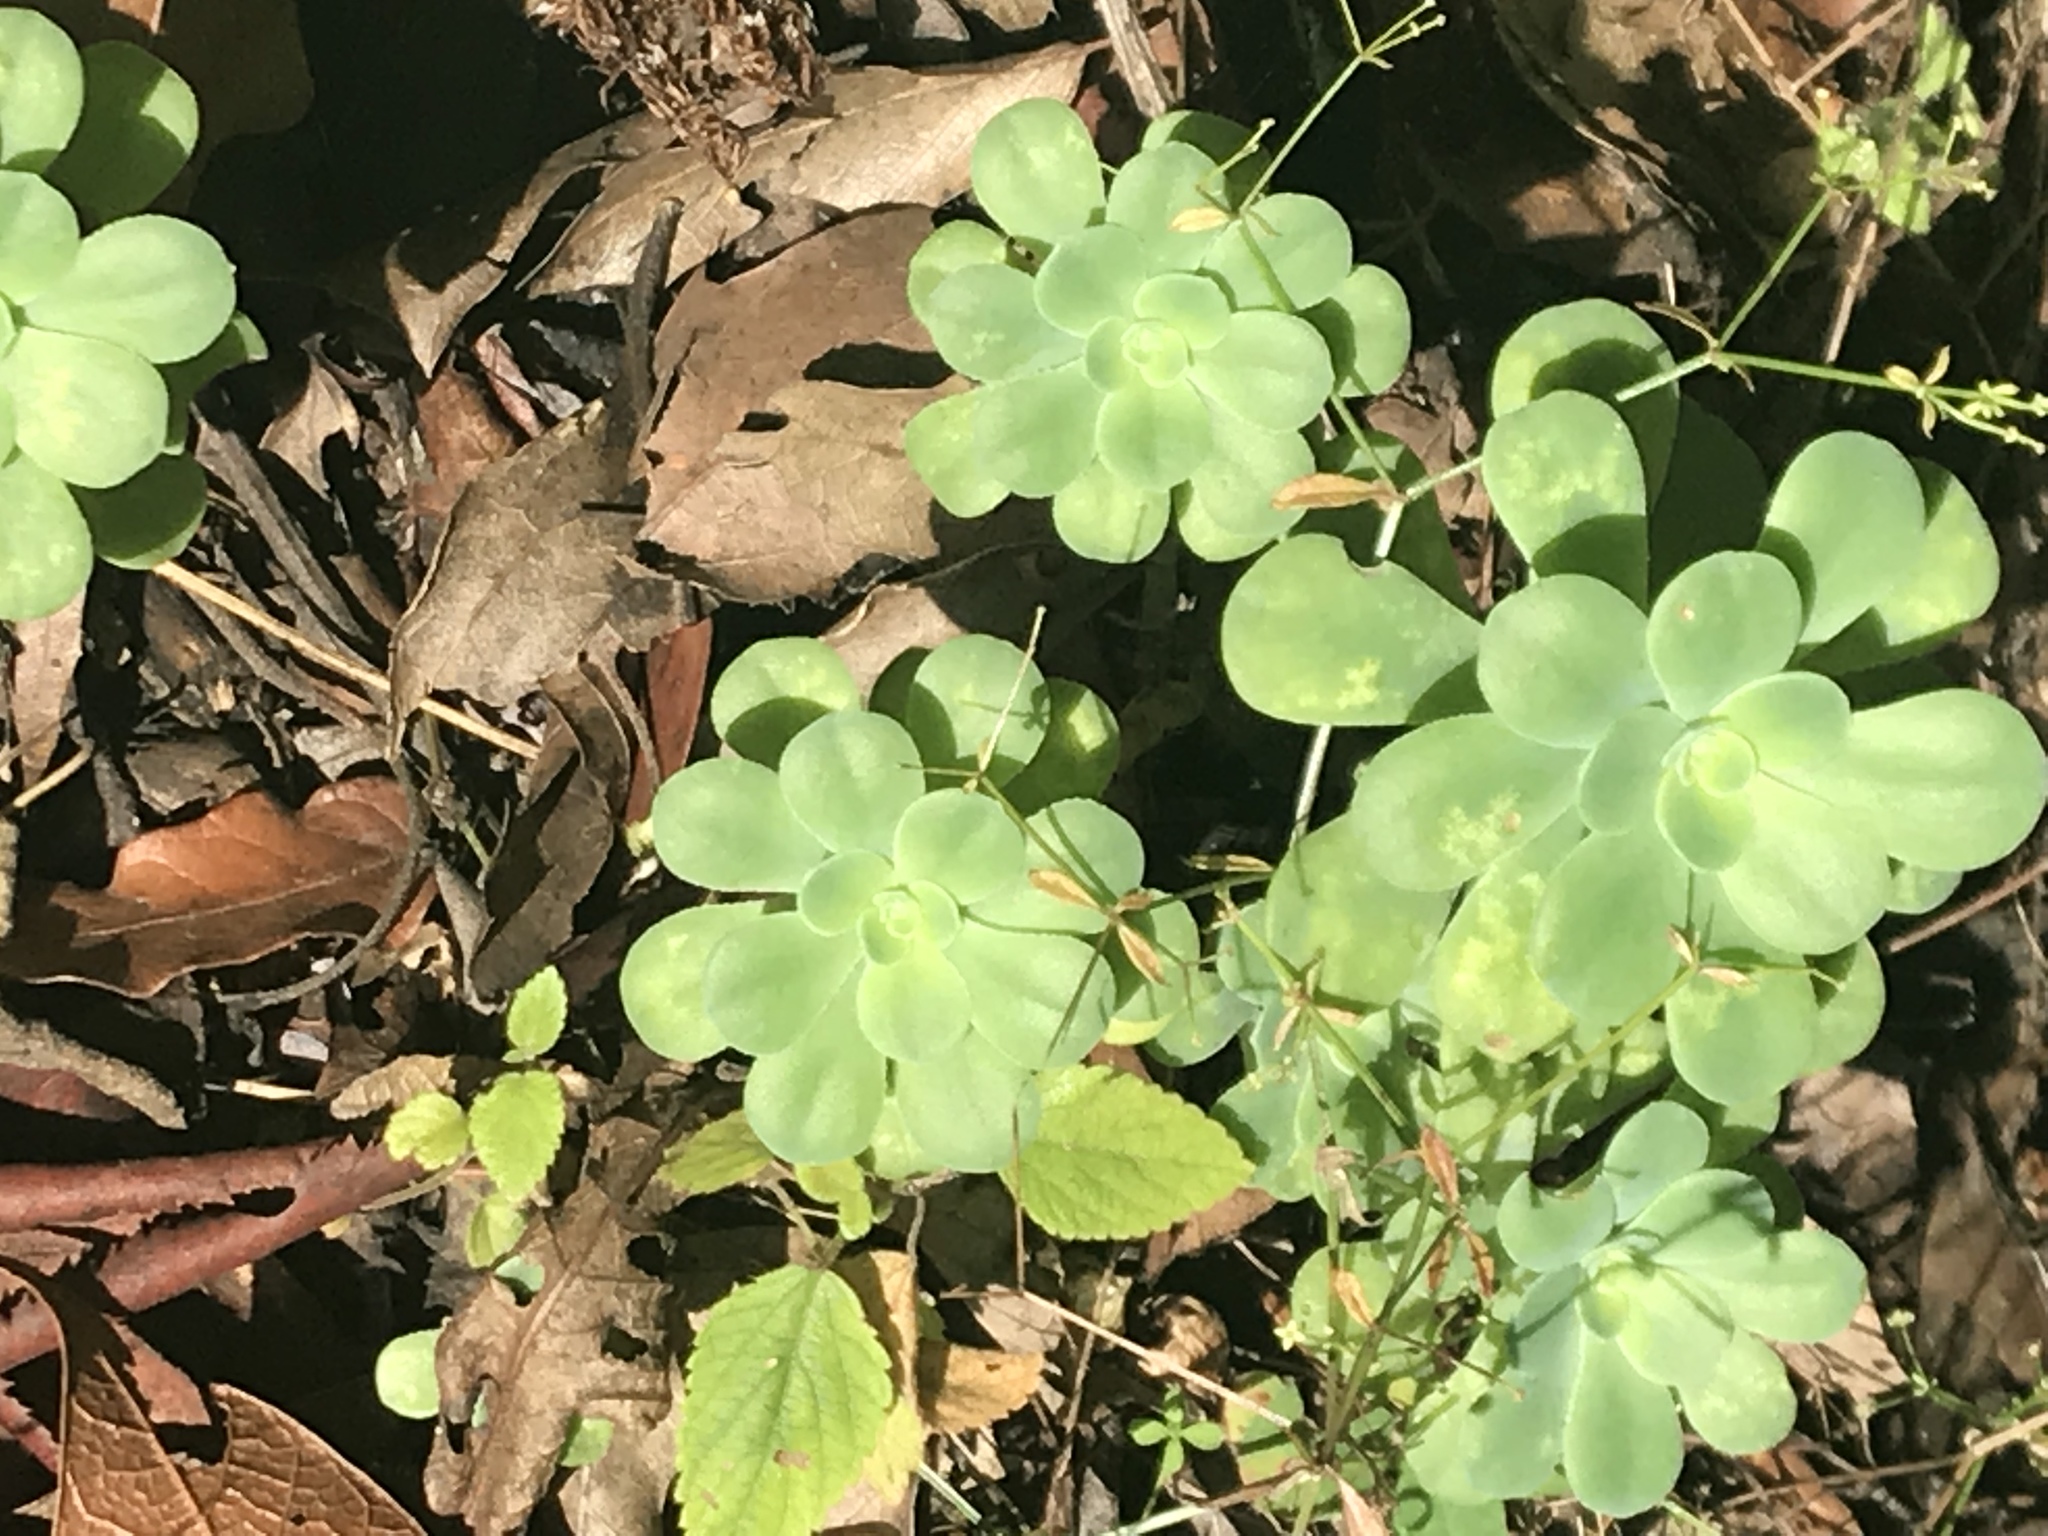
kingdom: Plantae
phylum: Tracheophyta
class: Magnoliopsida
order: Saxifragales
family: Crassulaceae
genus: Sedum
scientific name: Sedum palmeri
